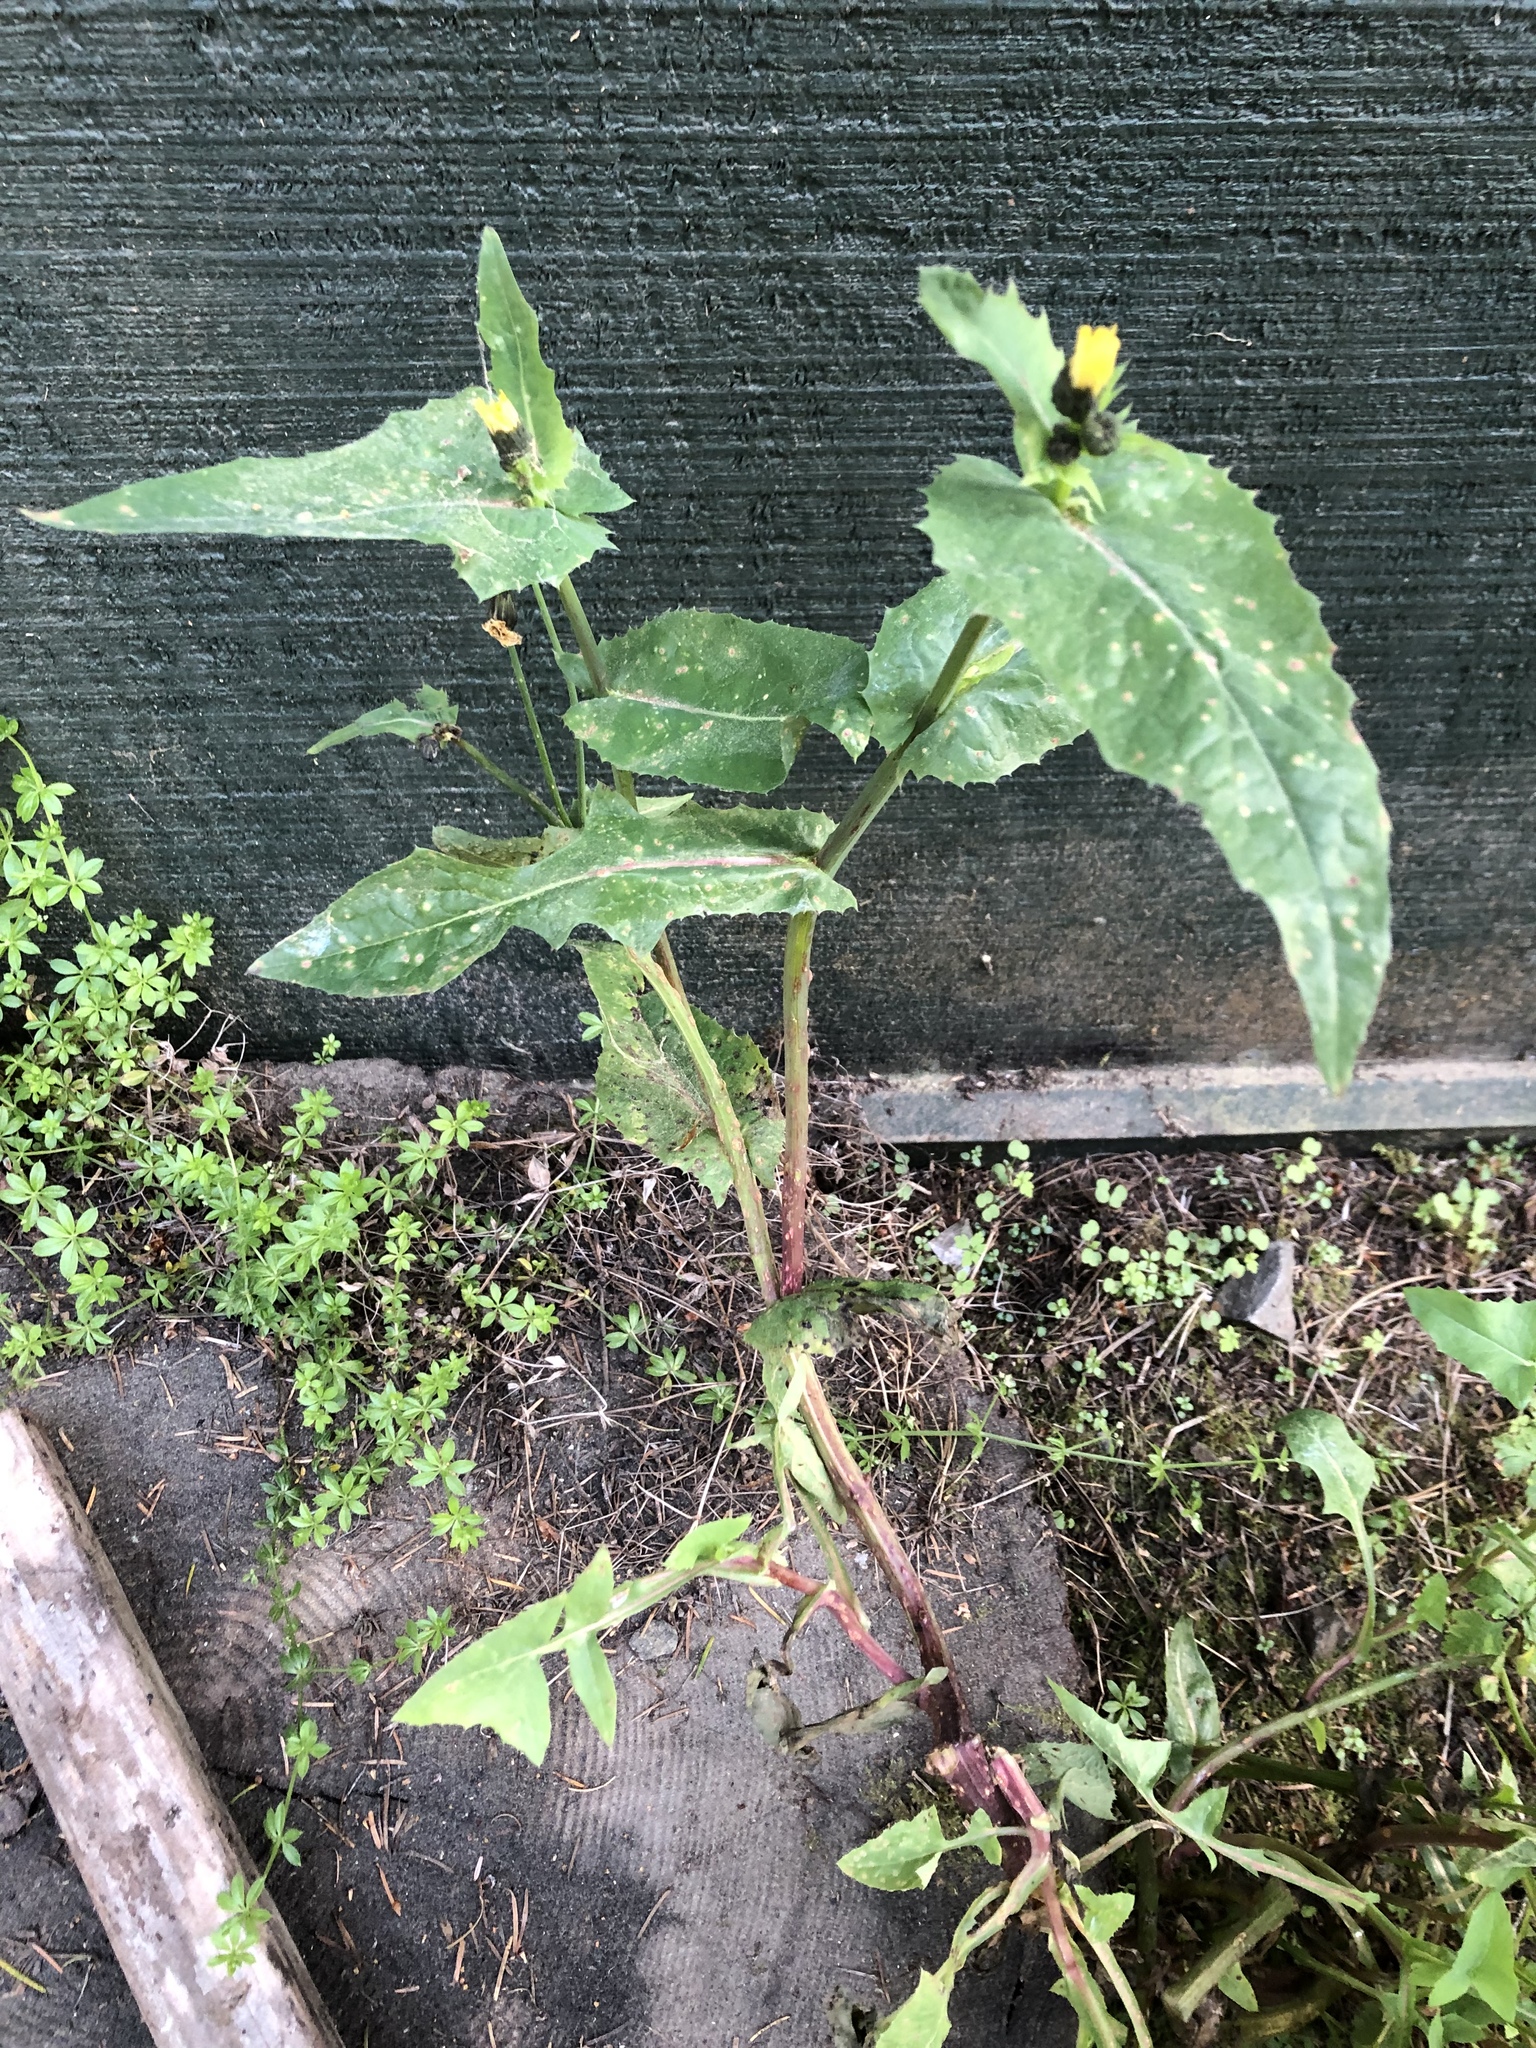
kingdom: Plantae
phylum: Tracheophyta
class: Magnoliopsida
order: Asterales
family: Asteraceae
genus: Sonchus
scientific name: Sonchus oleraceus
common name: Common sowthistle
